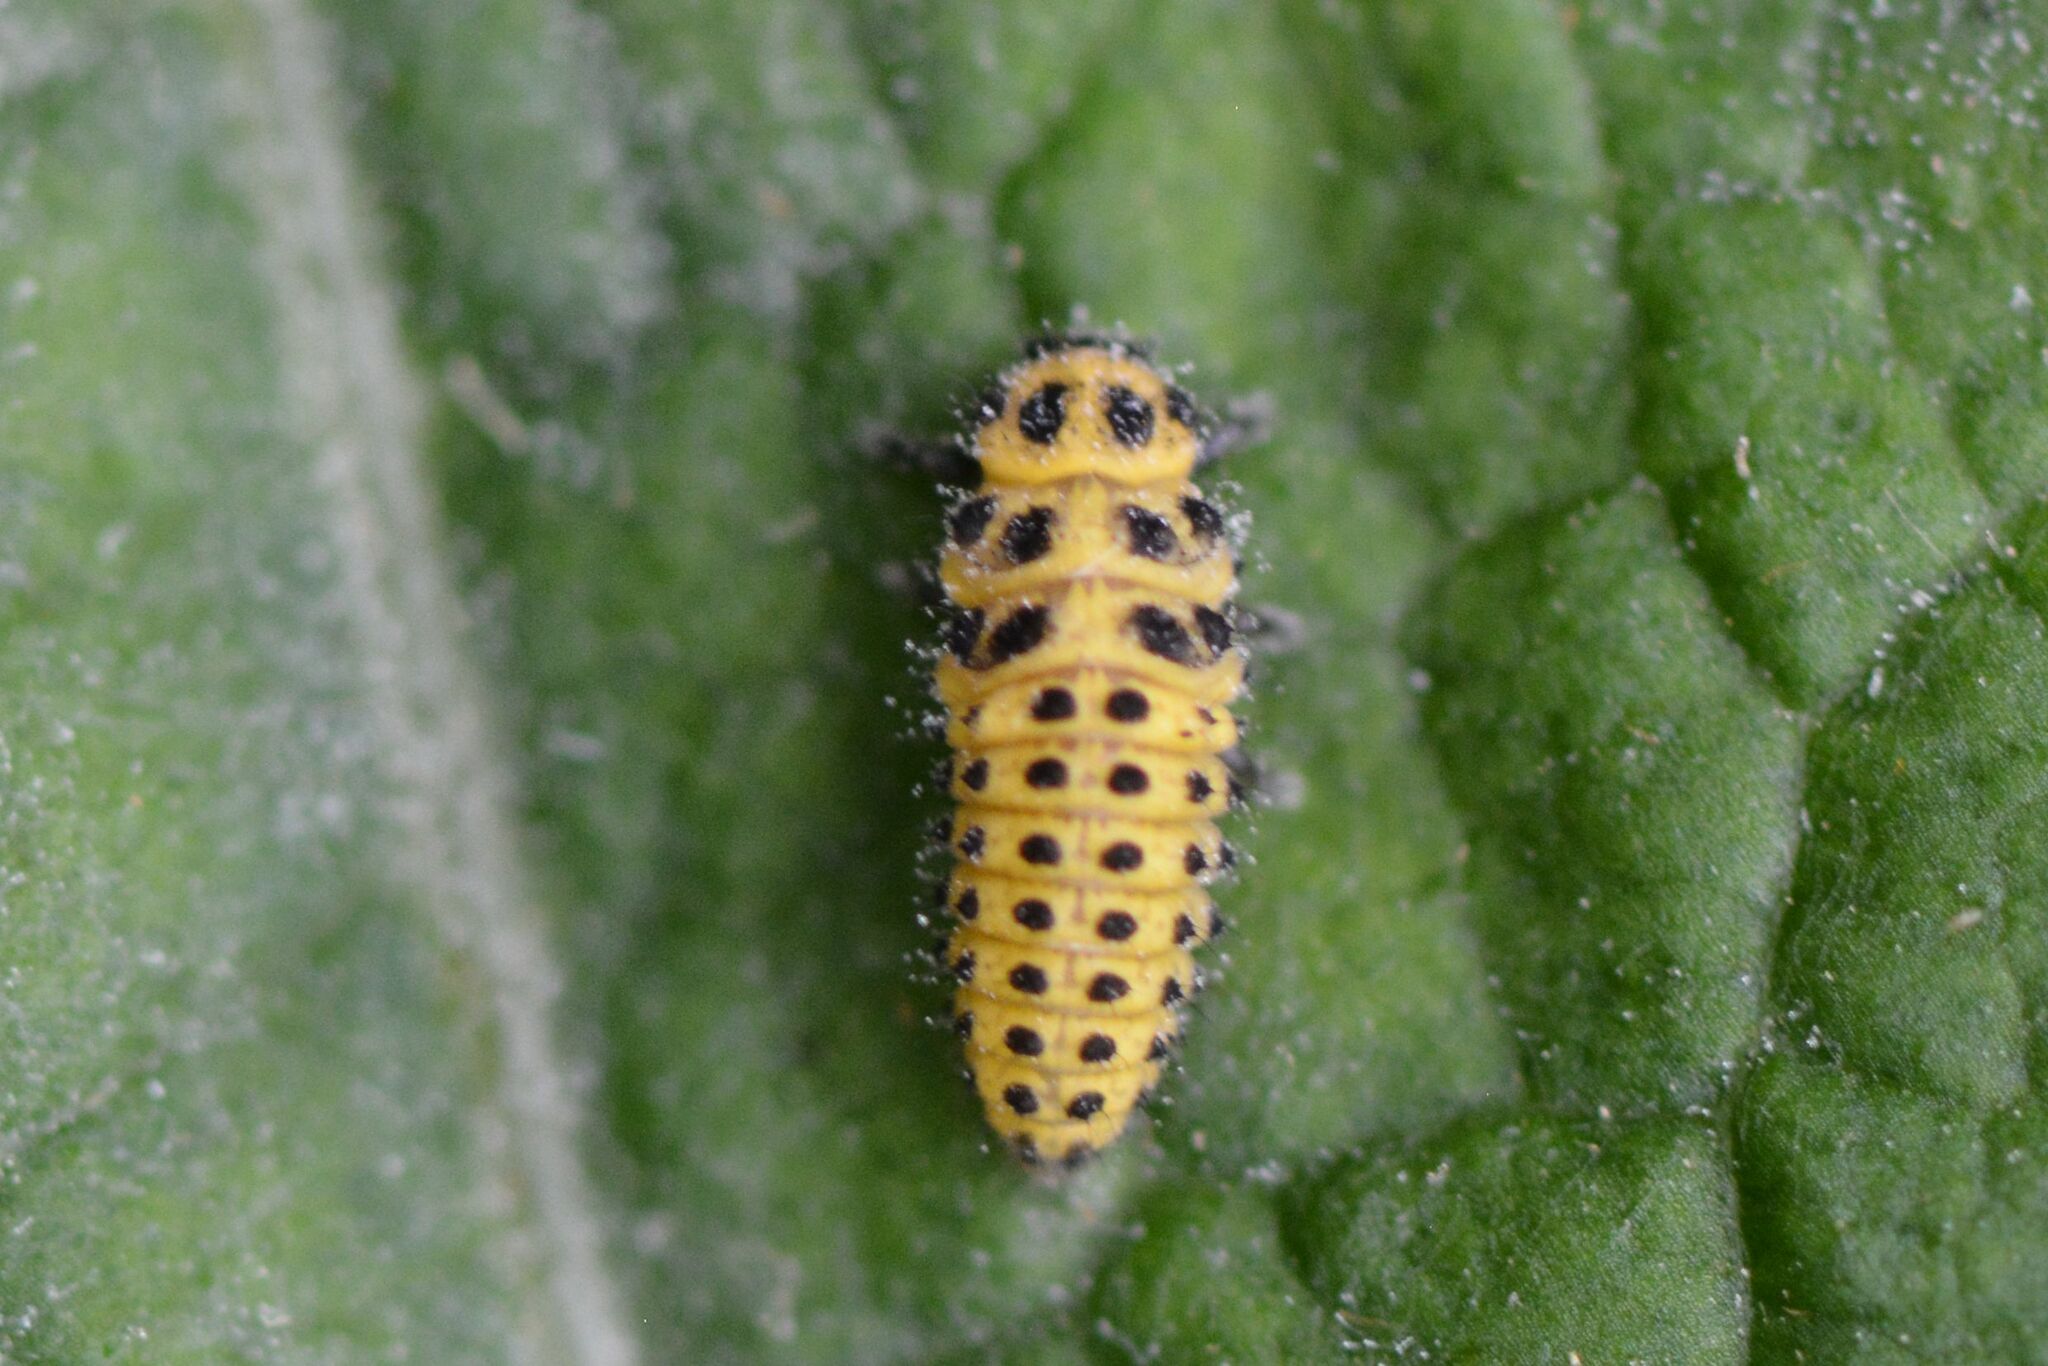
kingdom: Animalia
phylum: Arthropoda
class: Insecta
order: Coleoptera
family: Coccinellidae
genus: Psyllobora
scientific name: Psyllobora vigintiduopunctata
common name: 22-spot ladybird
